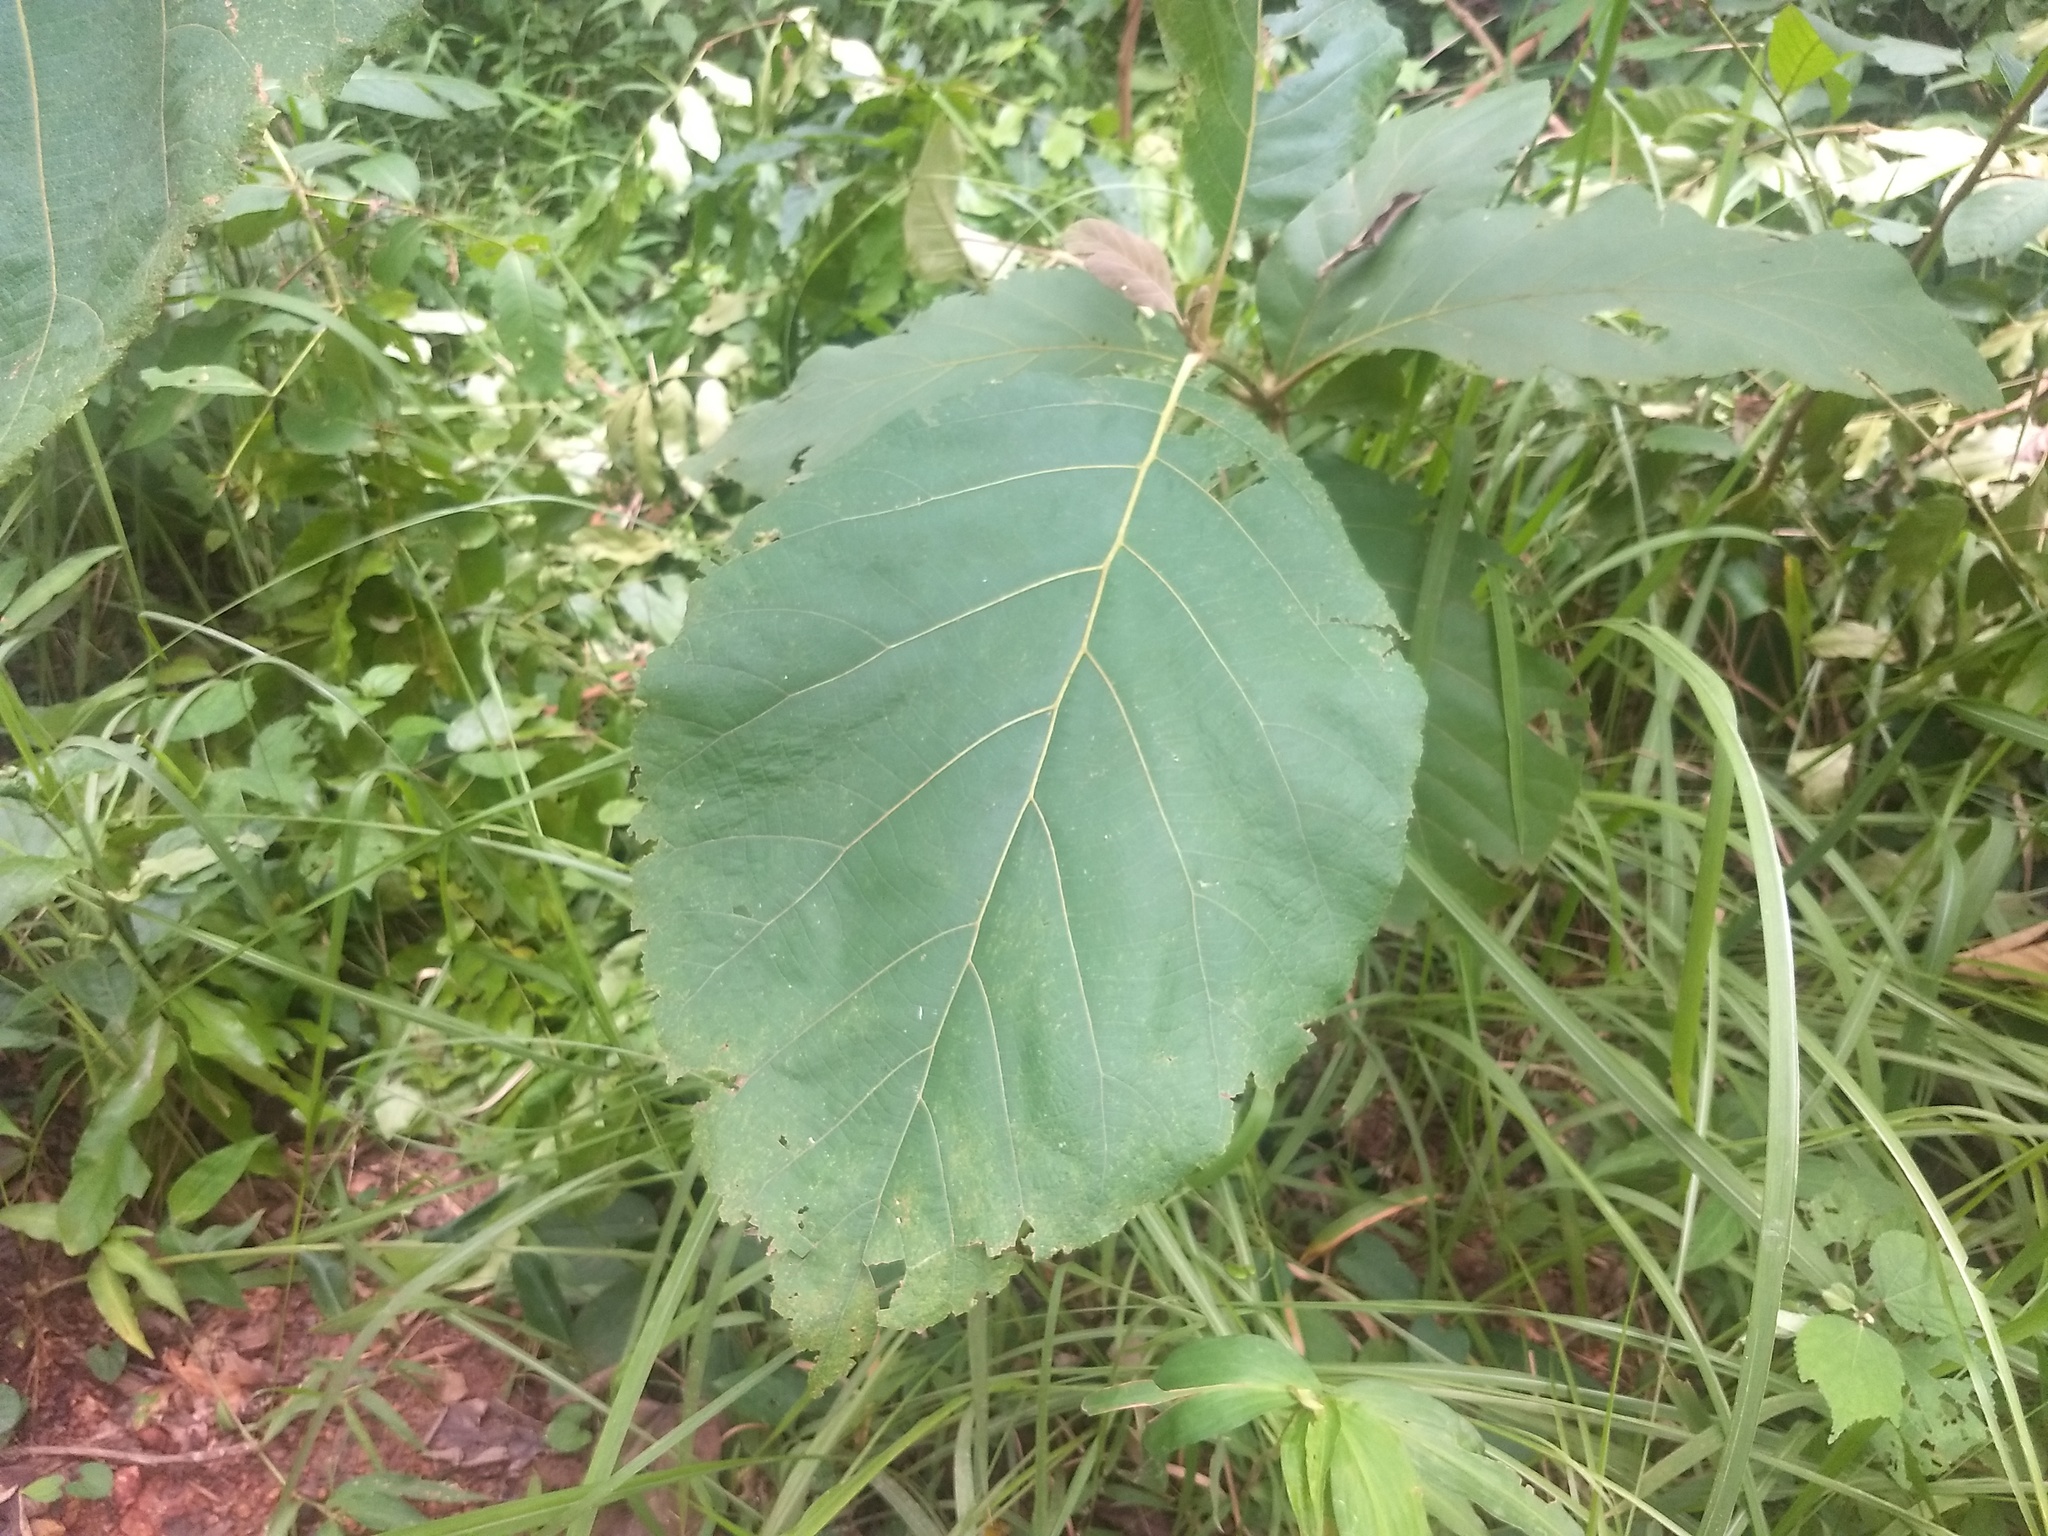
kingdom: Plantae
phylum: Tracheophyta
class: Magnoliopsida
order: Lamiales
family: Lamiaceae
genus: Tectona
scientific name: Tectona grandis
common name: Teak
